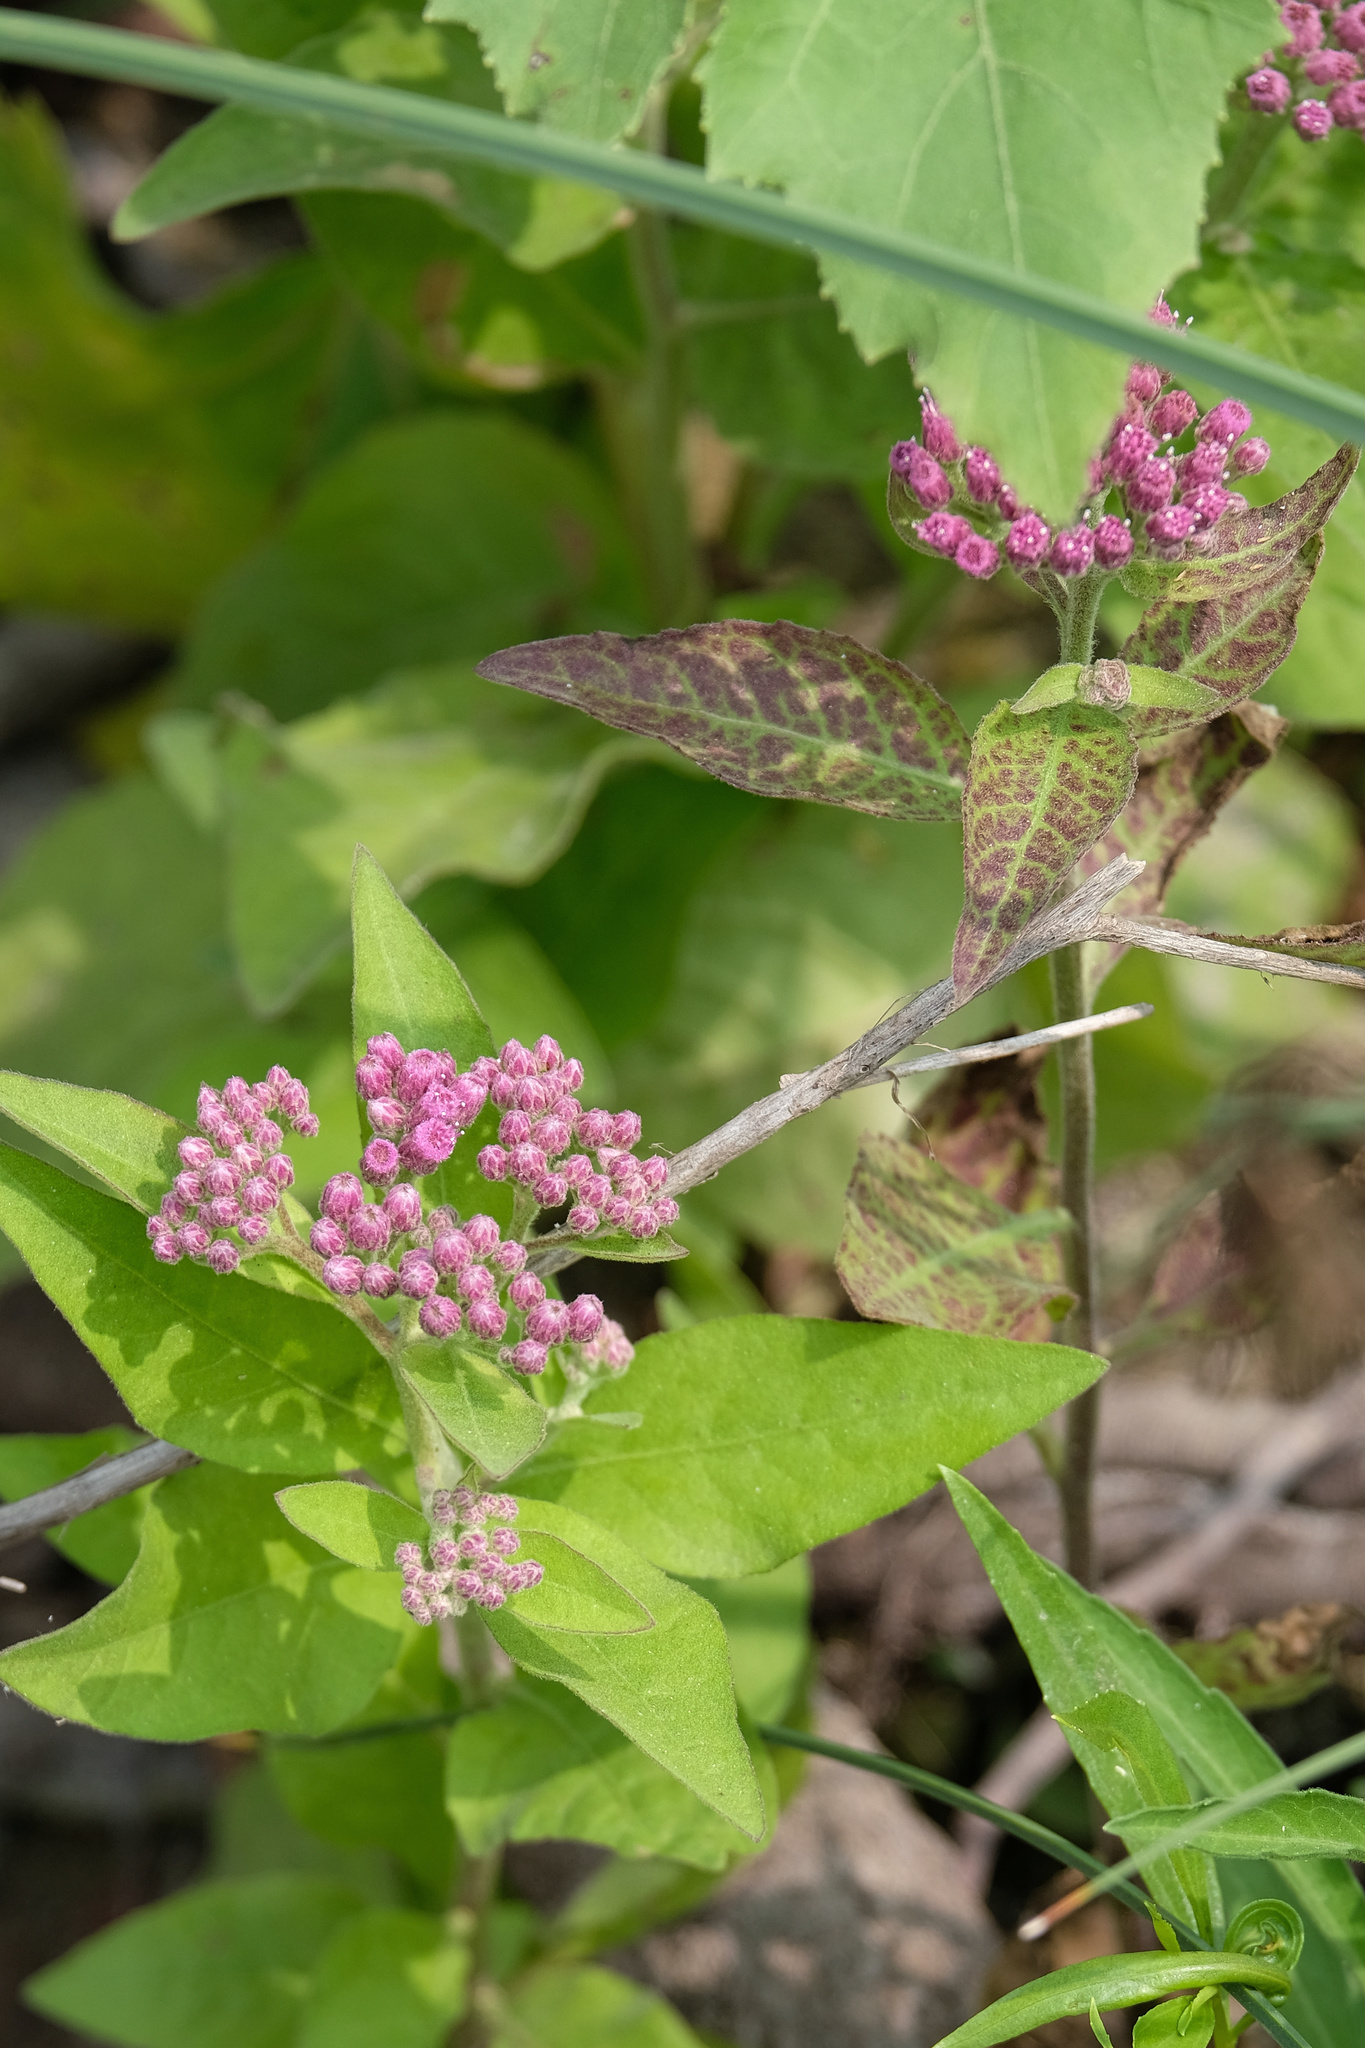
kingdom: Plantae
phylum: Tracheophyta
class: Magnoliopsida
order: Asterales
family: Asteraceae
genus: Pluchea
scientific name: Pluchea odorata
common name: Saltmarsh fleabane
